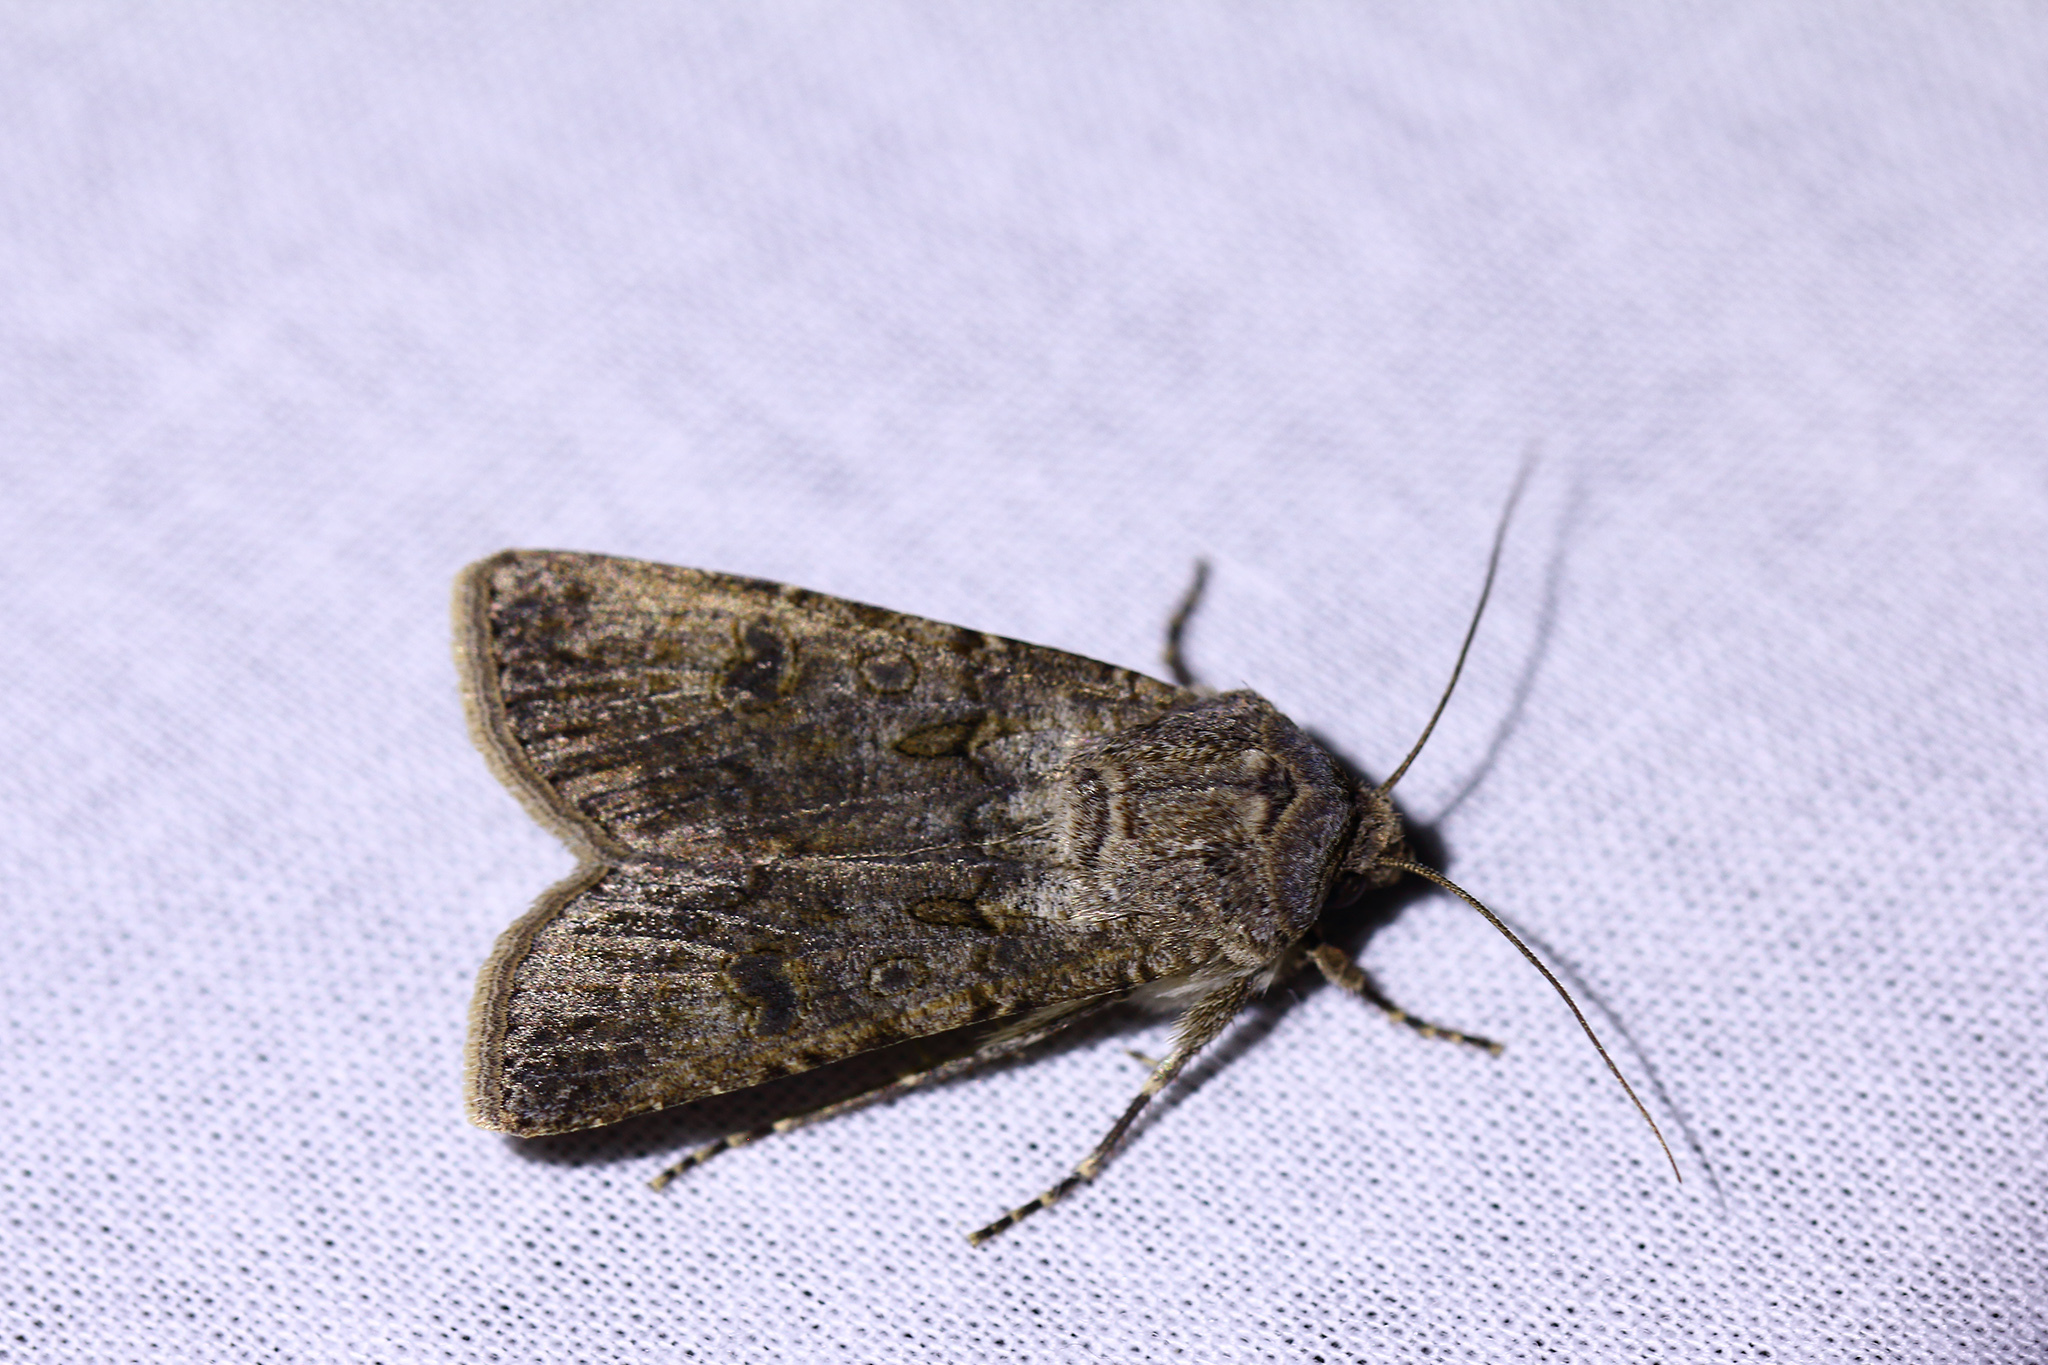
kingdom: Animalia
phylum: Arthropoda
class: Insecta
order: Lepidoptera
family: Noctuidae
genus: Agrotis
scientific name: Agrotis segetum
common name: Turnip moth
